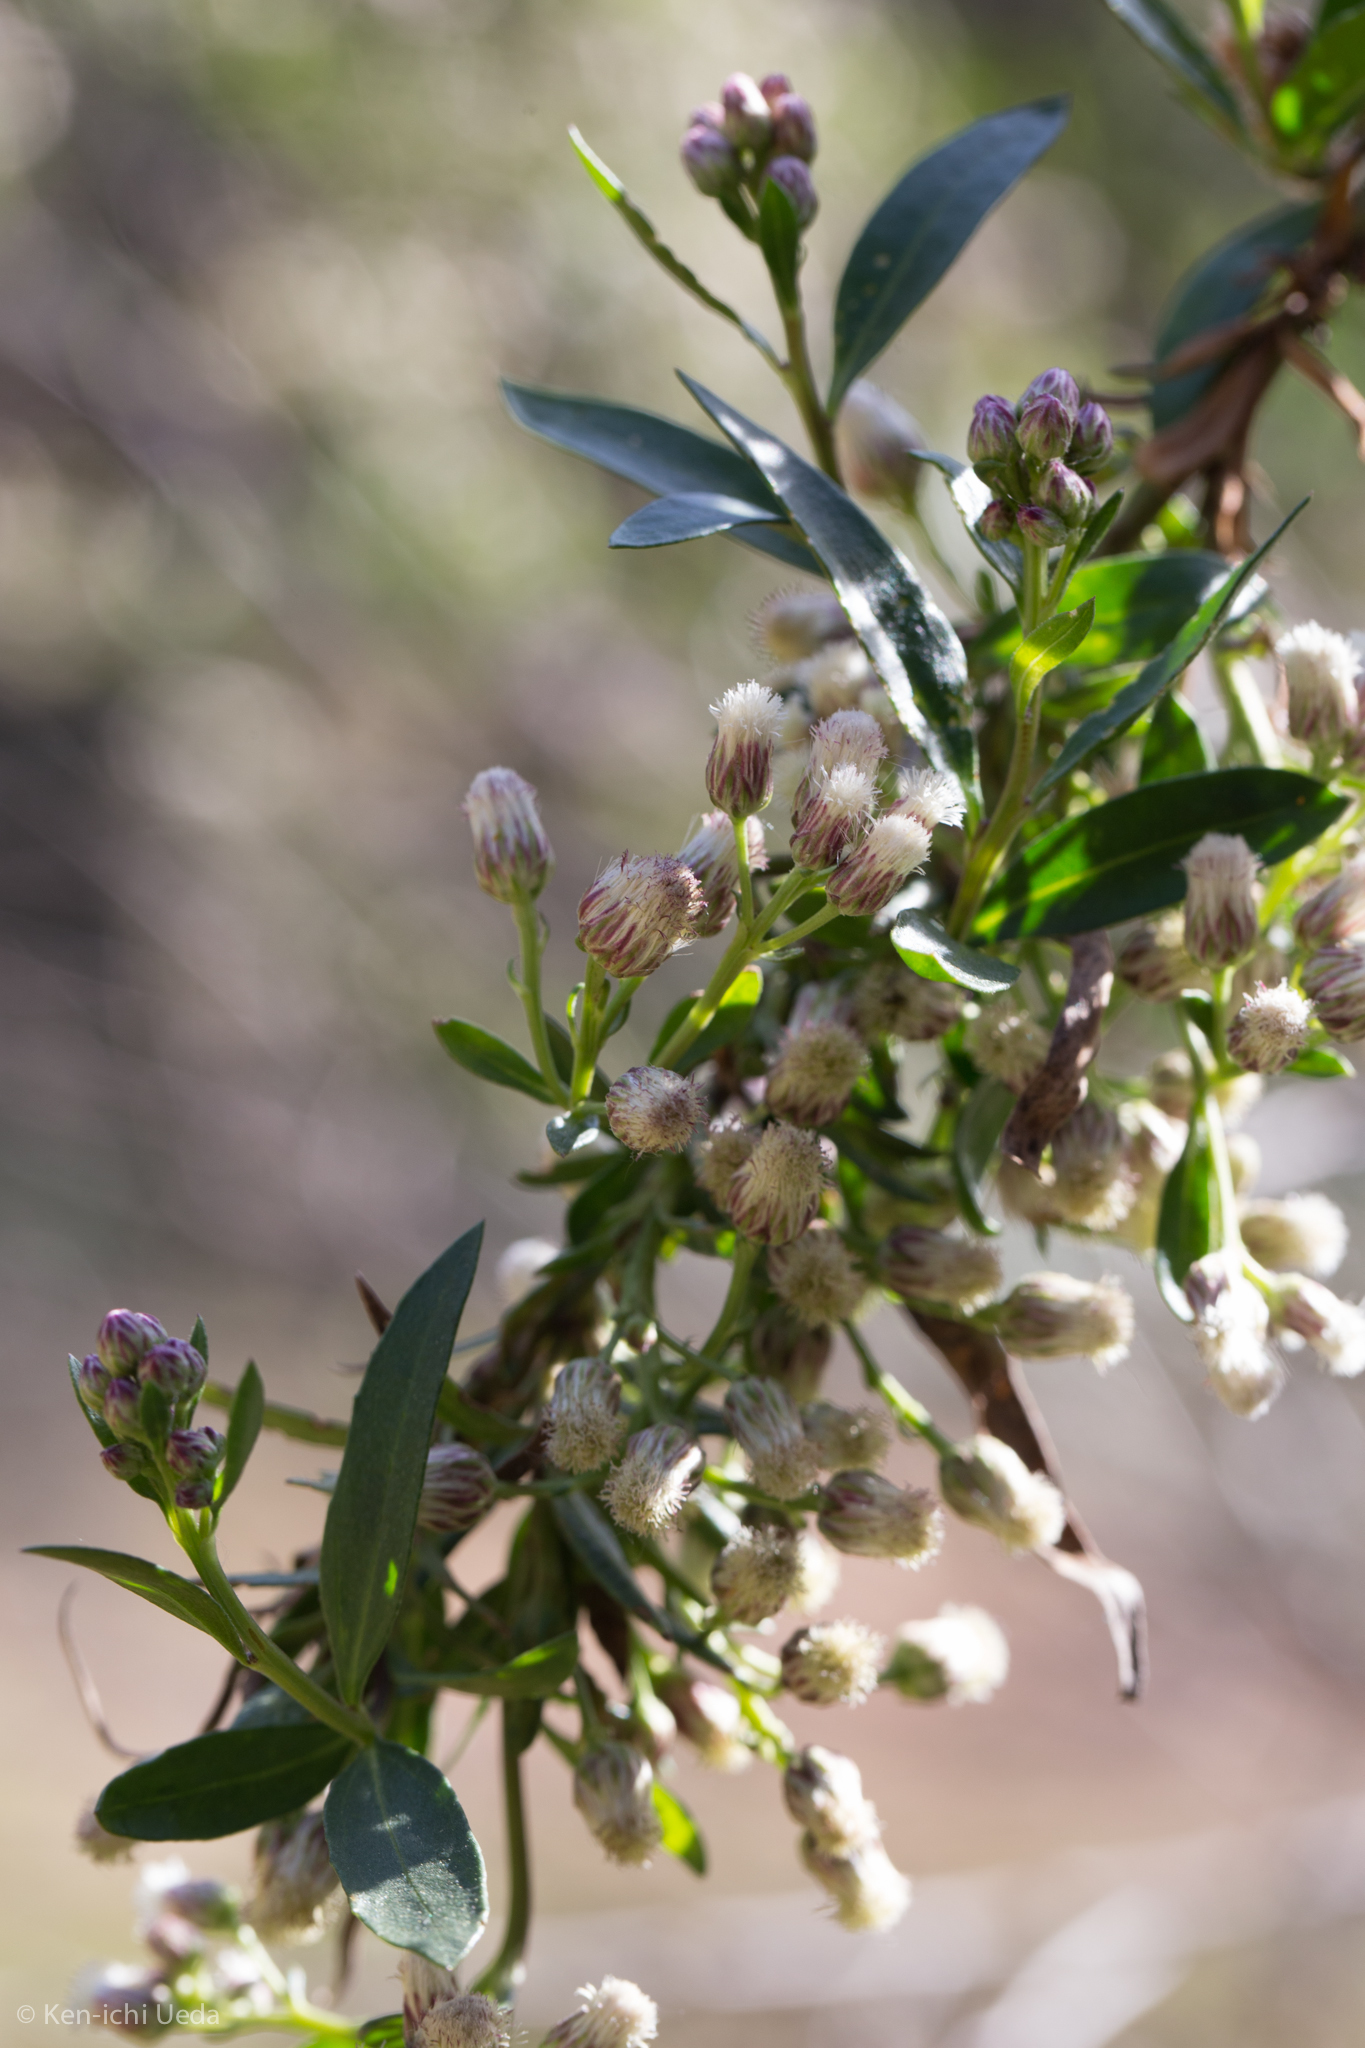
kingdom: Plantae
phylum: Tracheophyta
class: Magnoliopsida
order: Asterales
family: Asteraceae
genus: Baccharis
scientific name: Baccharis salicifolia
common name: Sticky baccharis
